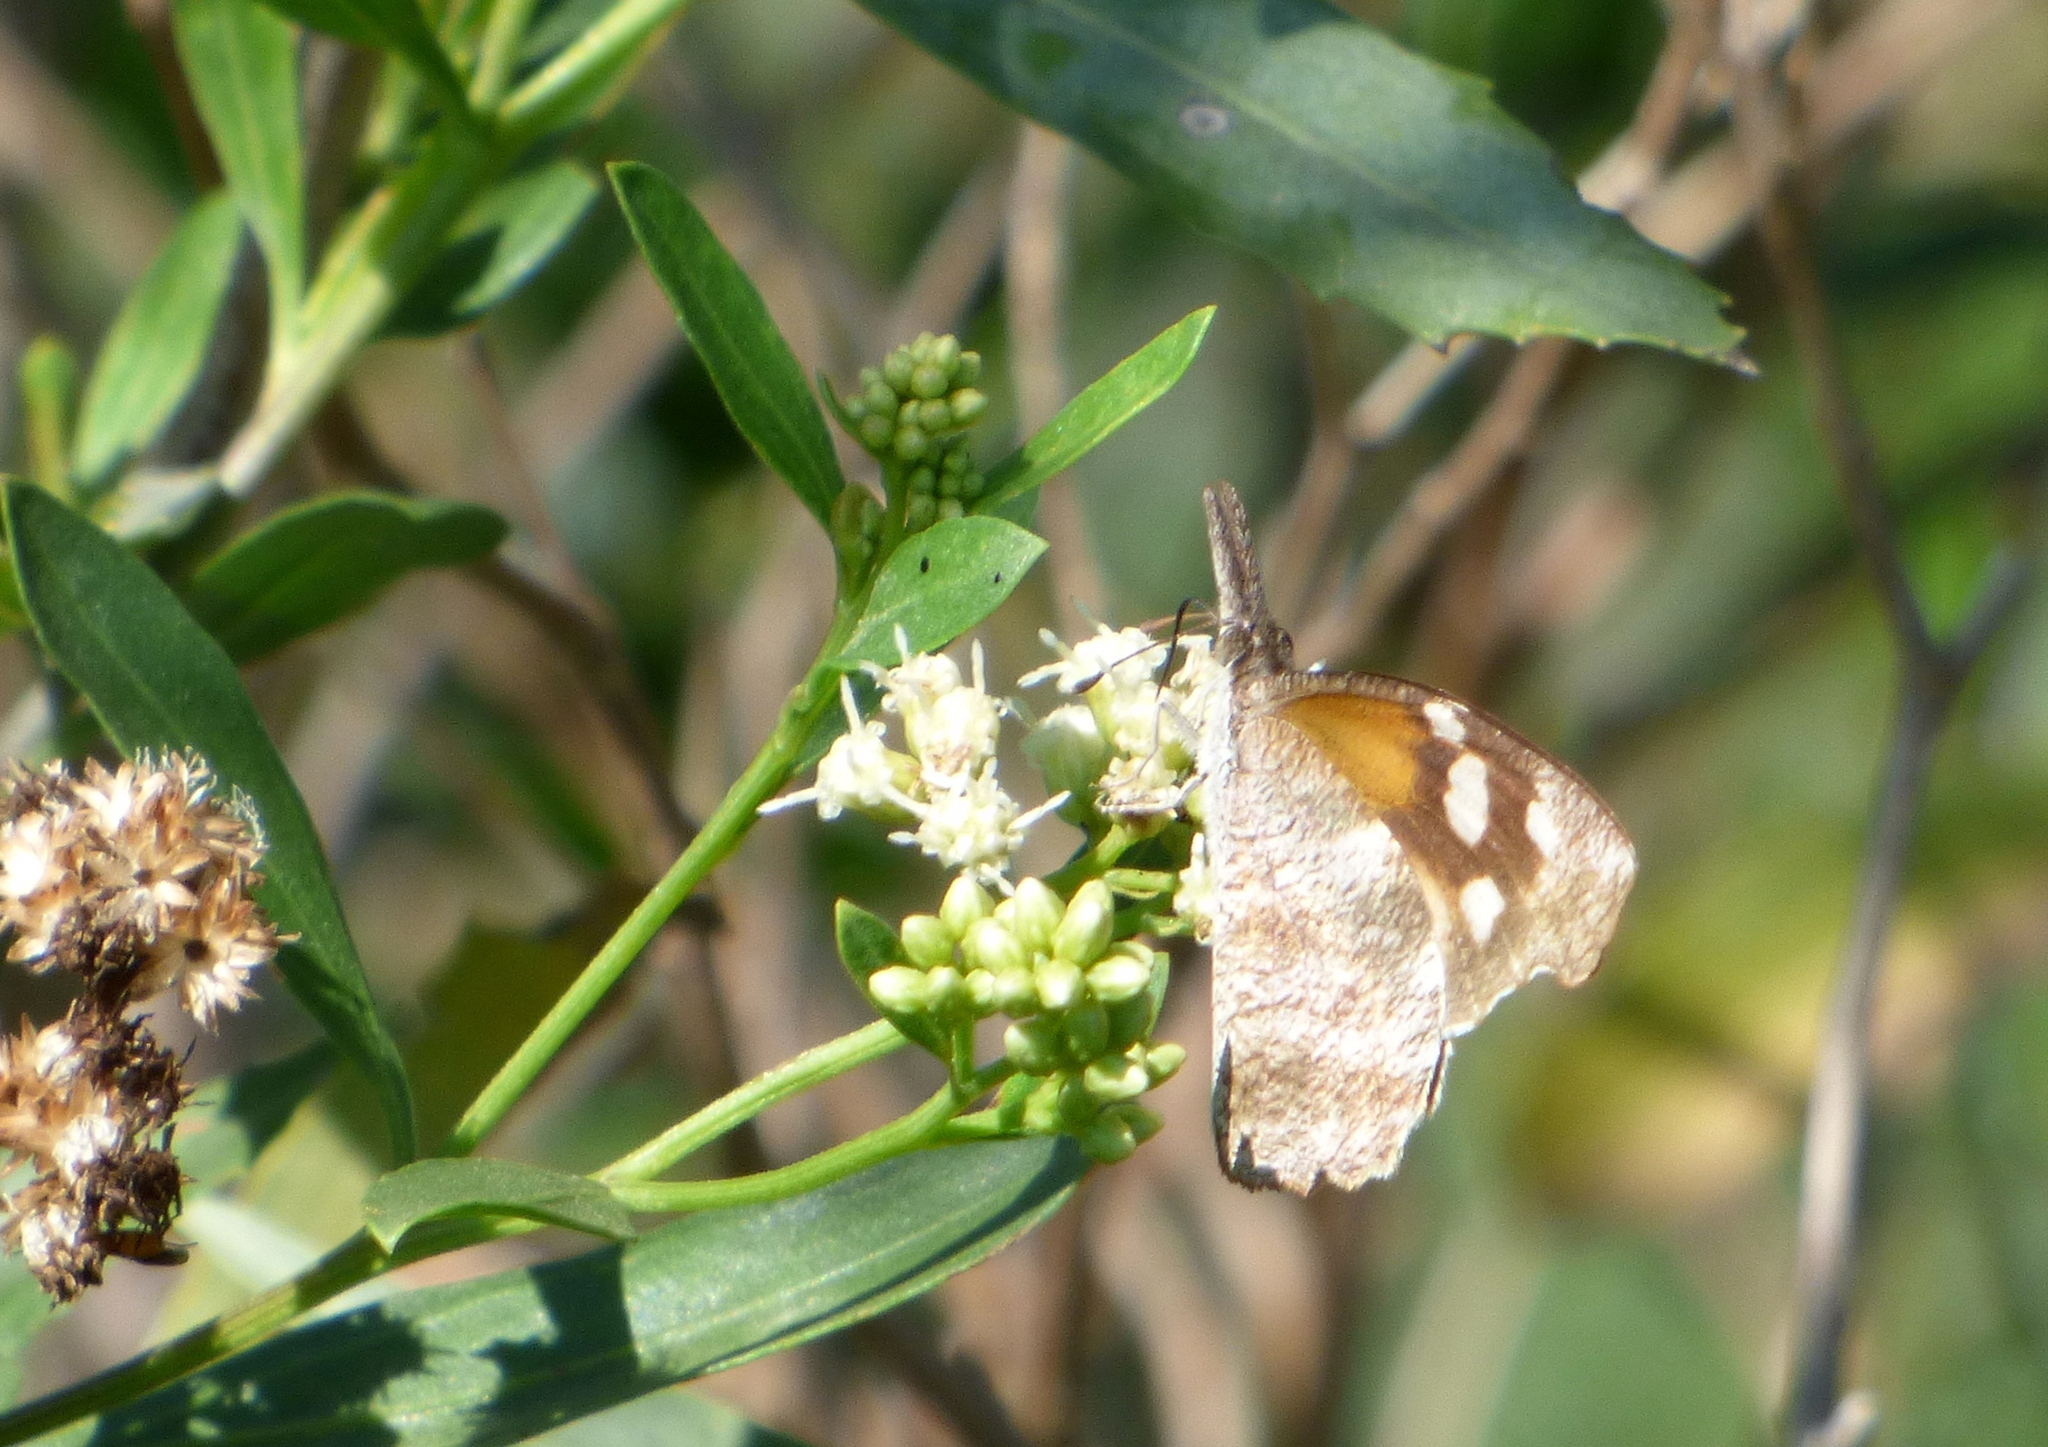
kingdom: Animalia
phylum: Arthropoda
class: Insecta
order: Lepidoptera
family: Nymphalidae
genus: Libytheana
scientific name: Libytheana carinenta
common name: American snout
